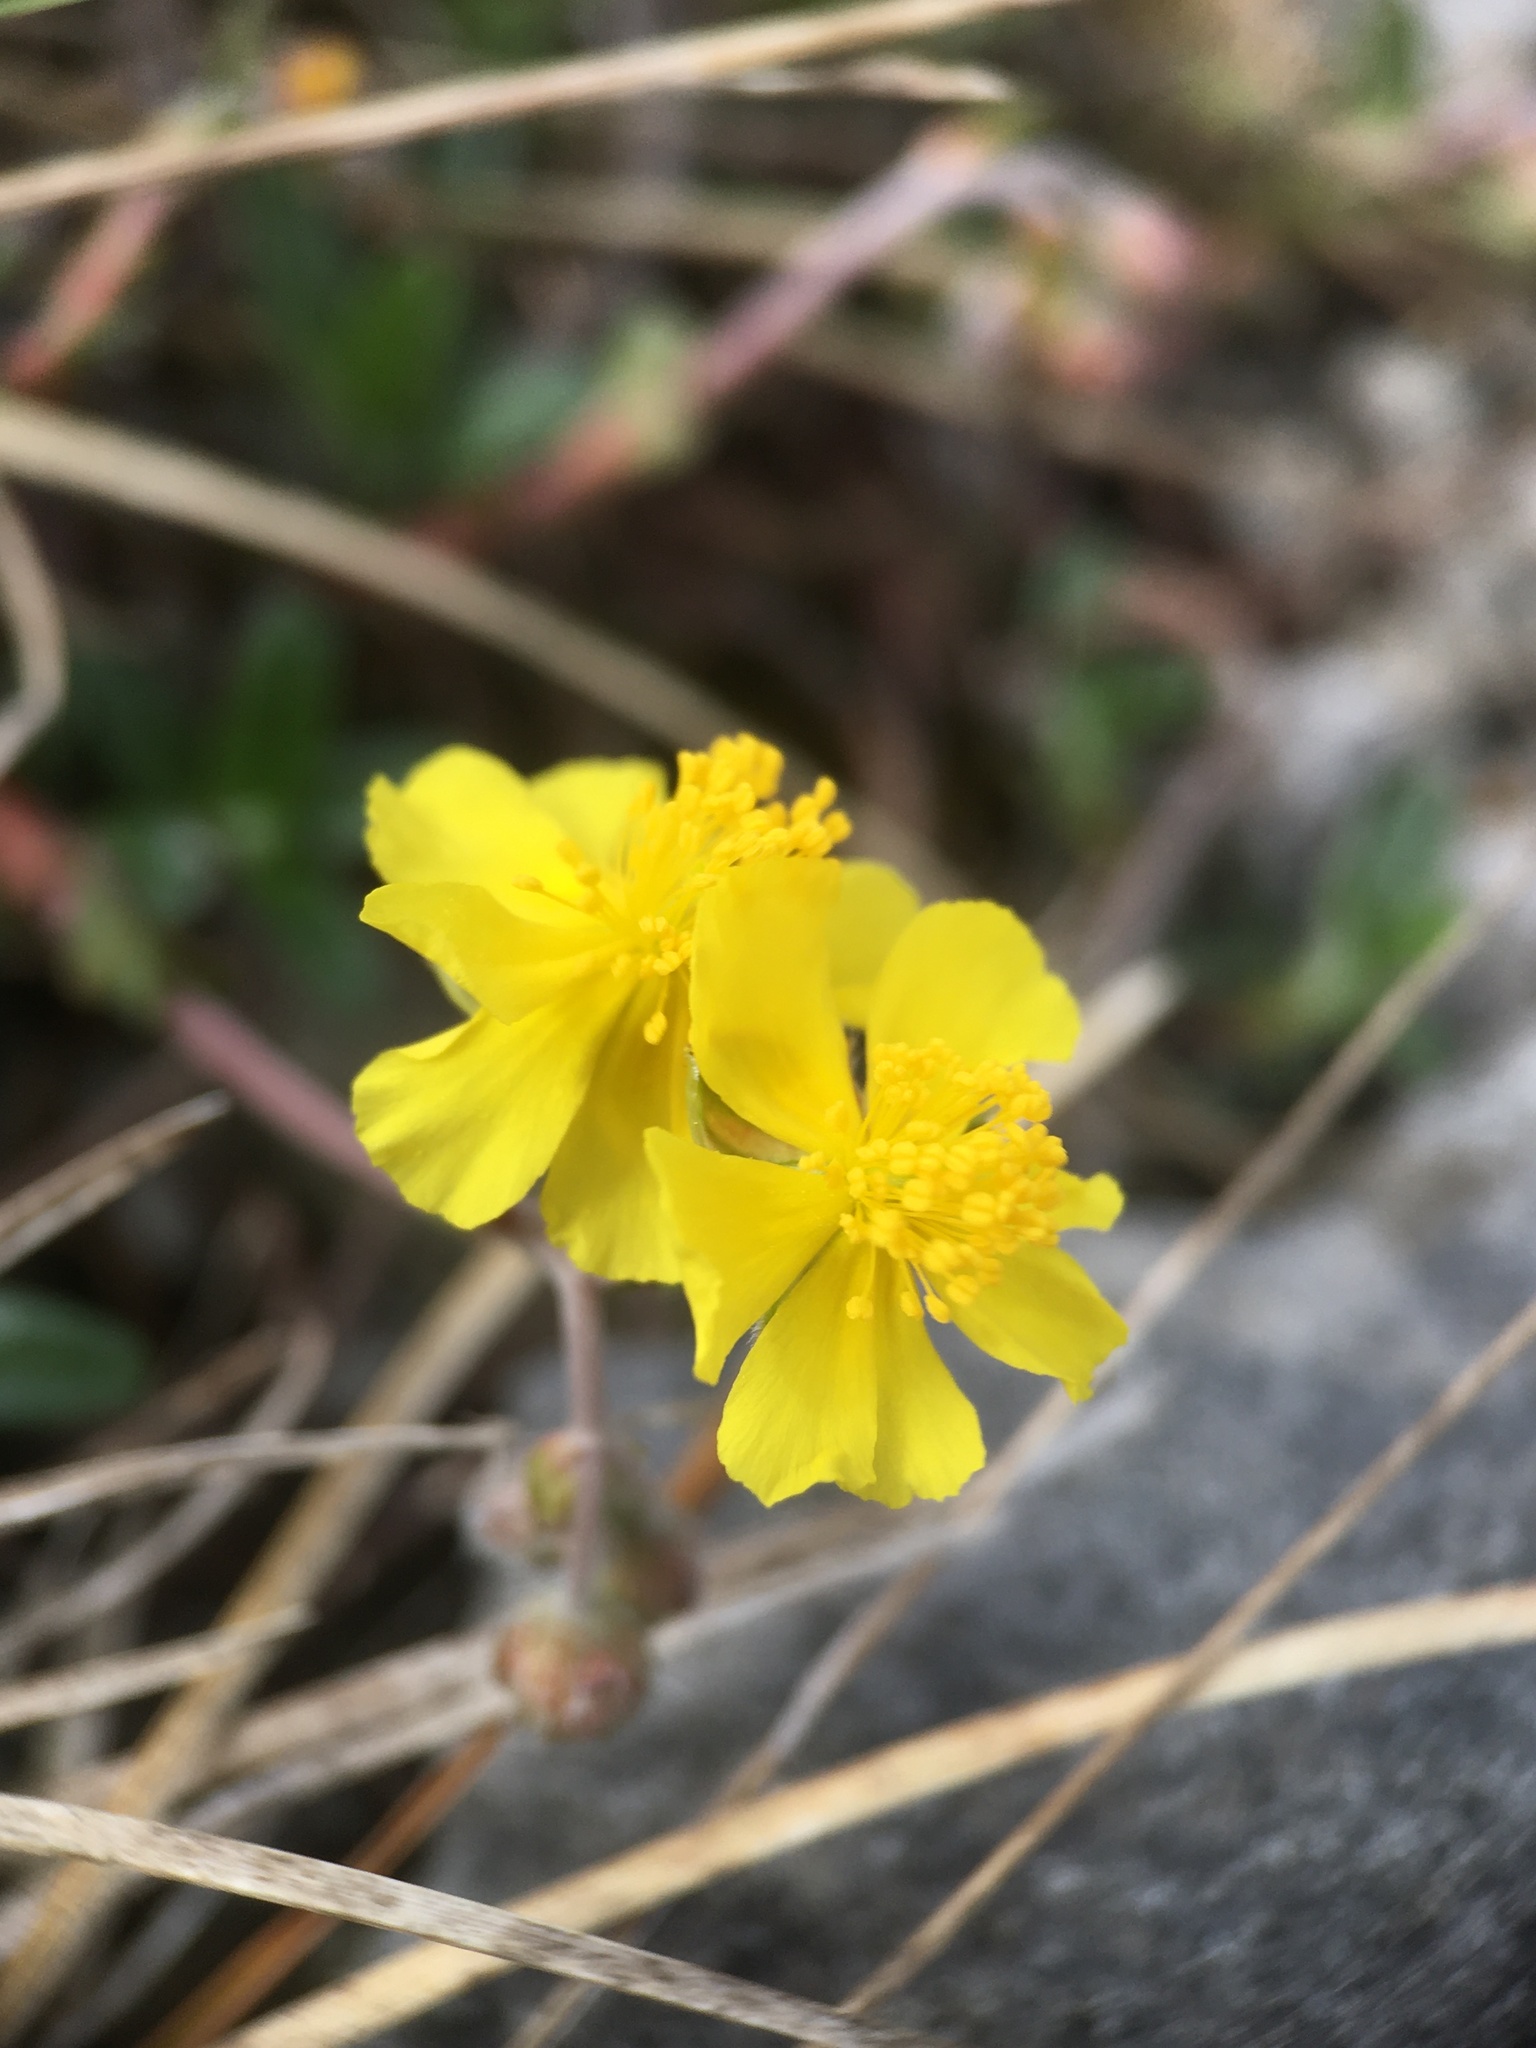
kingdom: Plantae
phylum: Tracheophyta
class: Magnoliopsida
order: Malvales
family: Cistaceae
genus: Helianthemum
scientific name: Helianthemum canum
